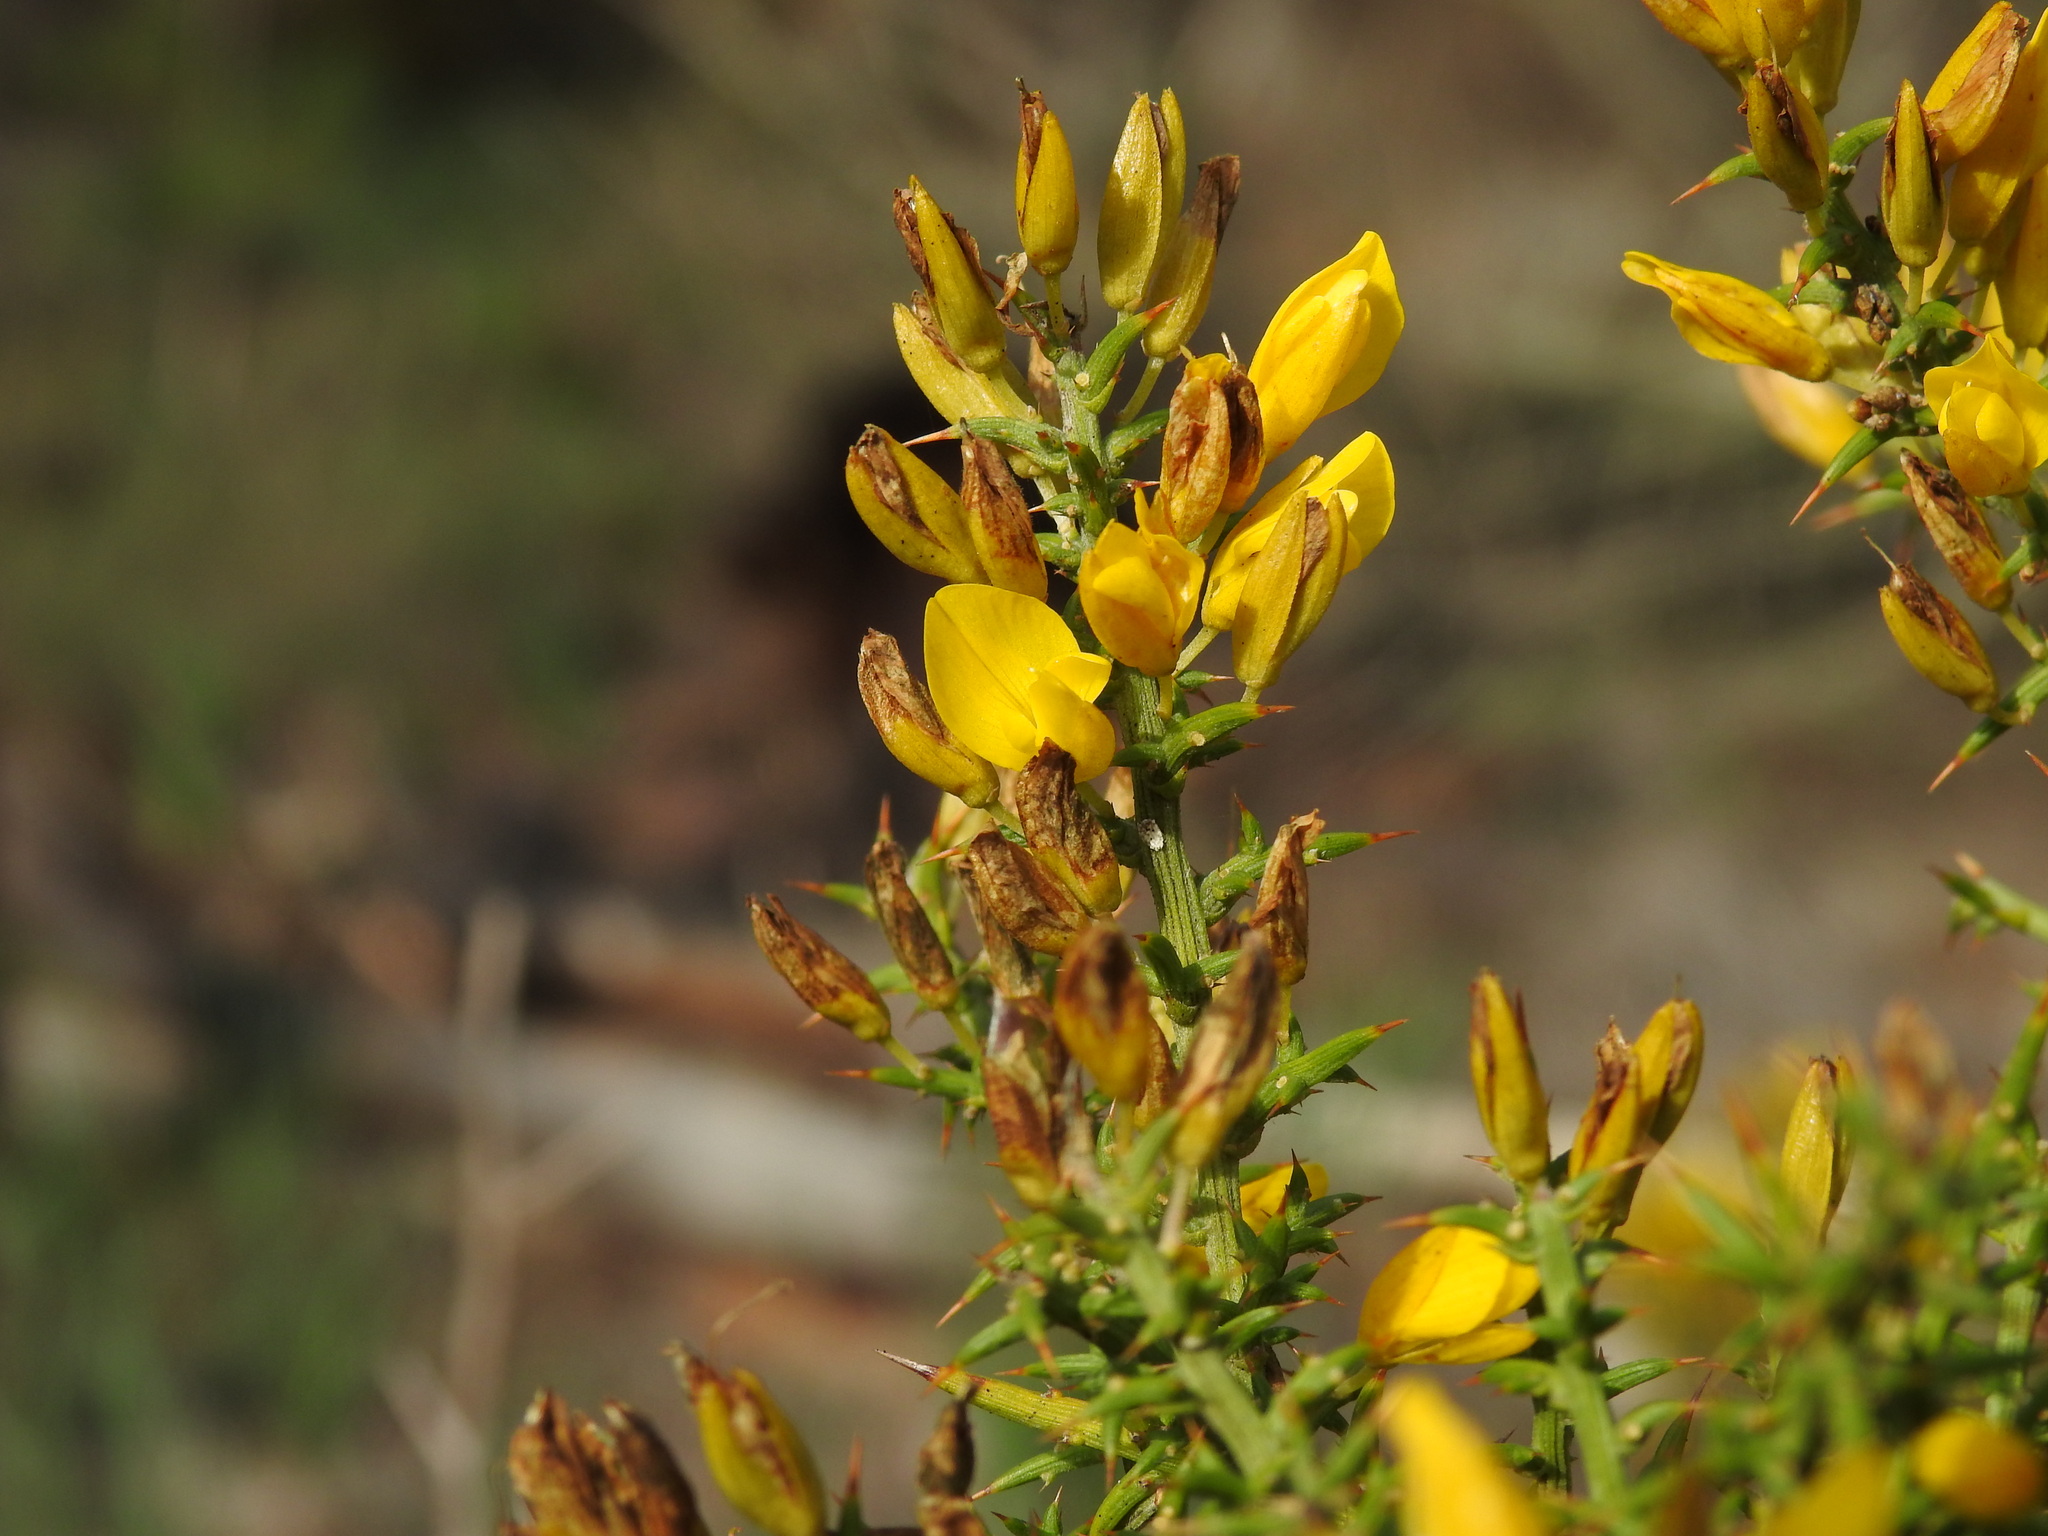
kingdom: Plantae
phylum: Tracheophyta
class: Magnoliopsida
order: Fabales
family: Fabaceae
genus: Ulex
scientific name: Ulex argenteus
